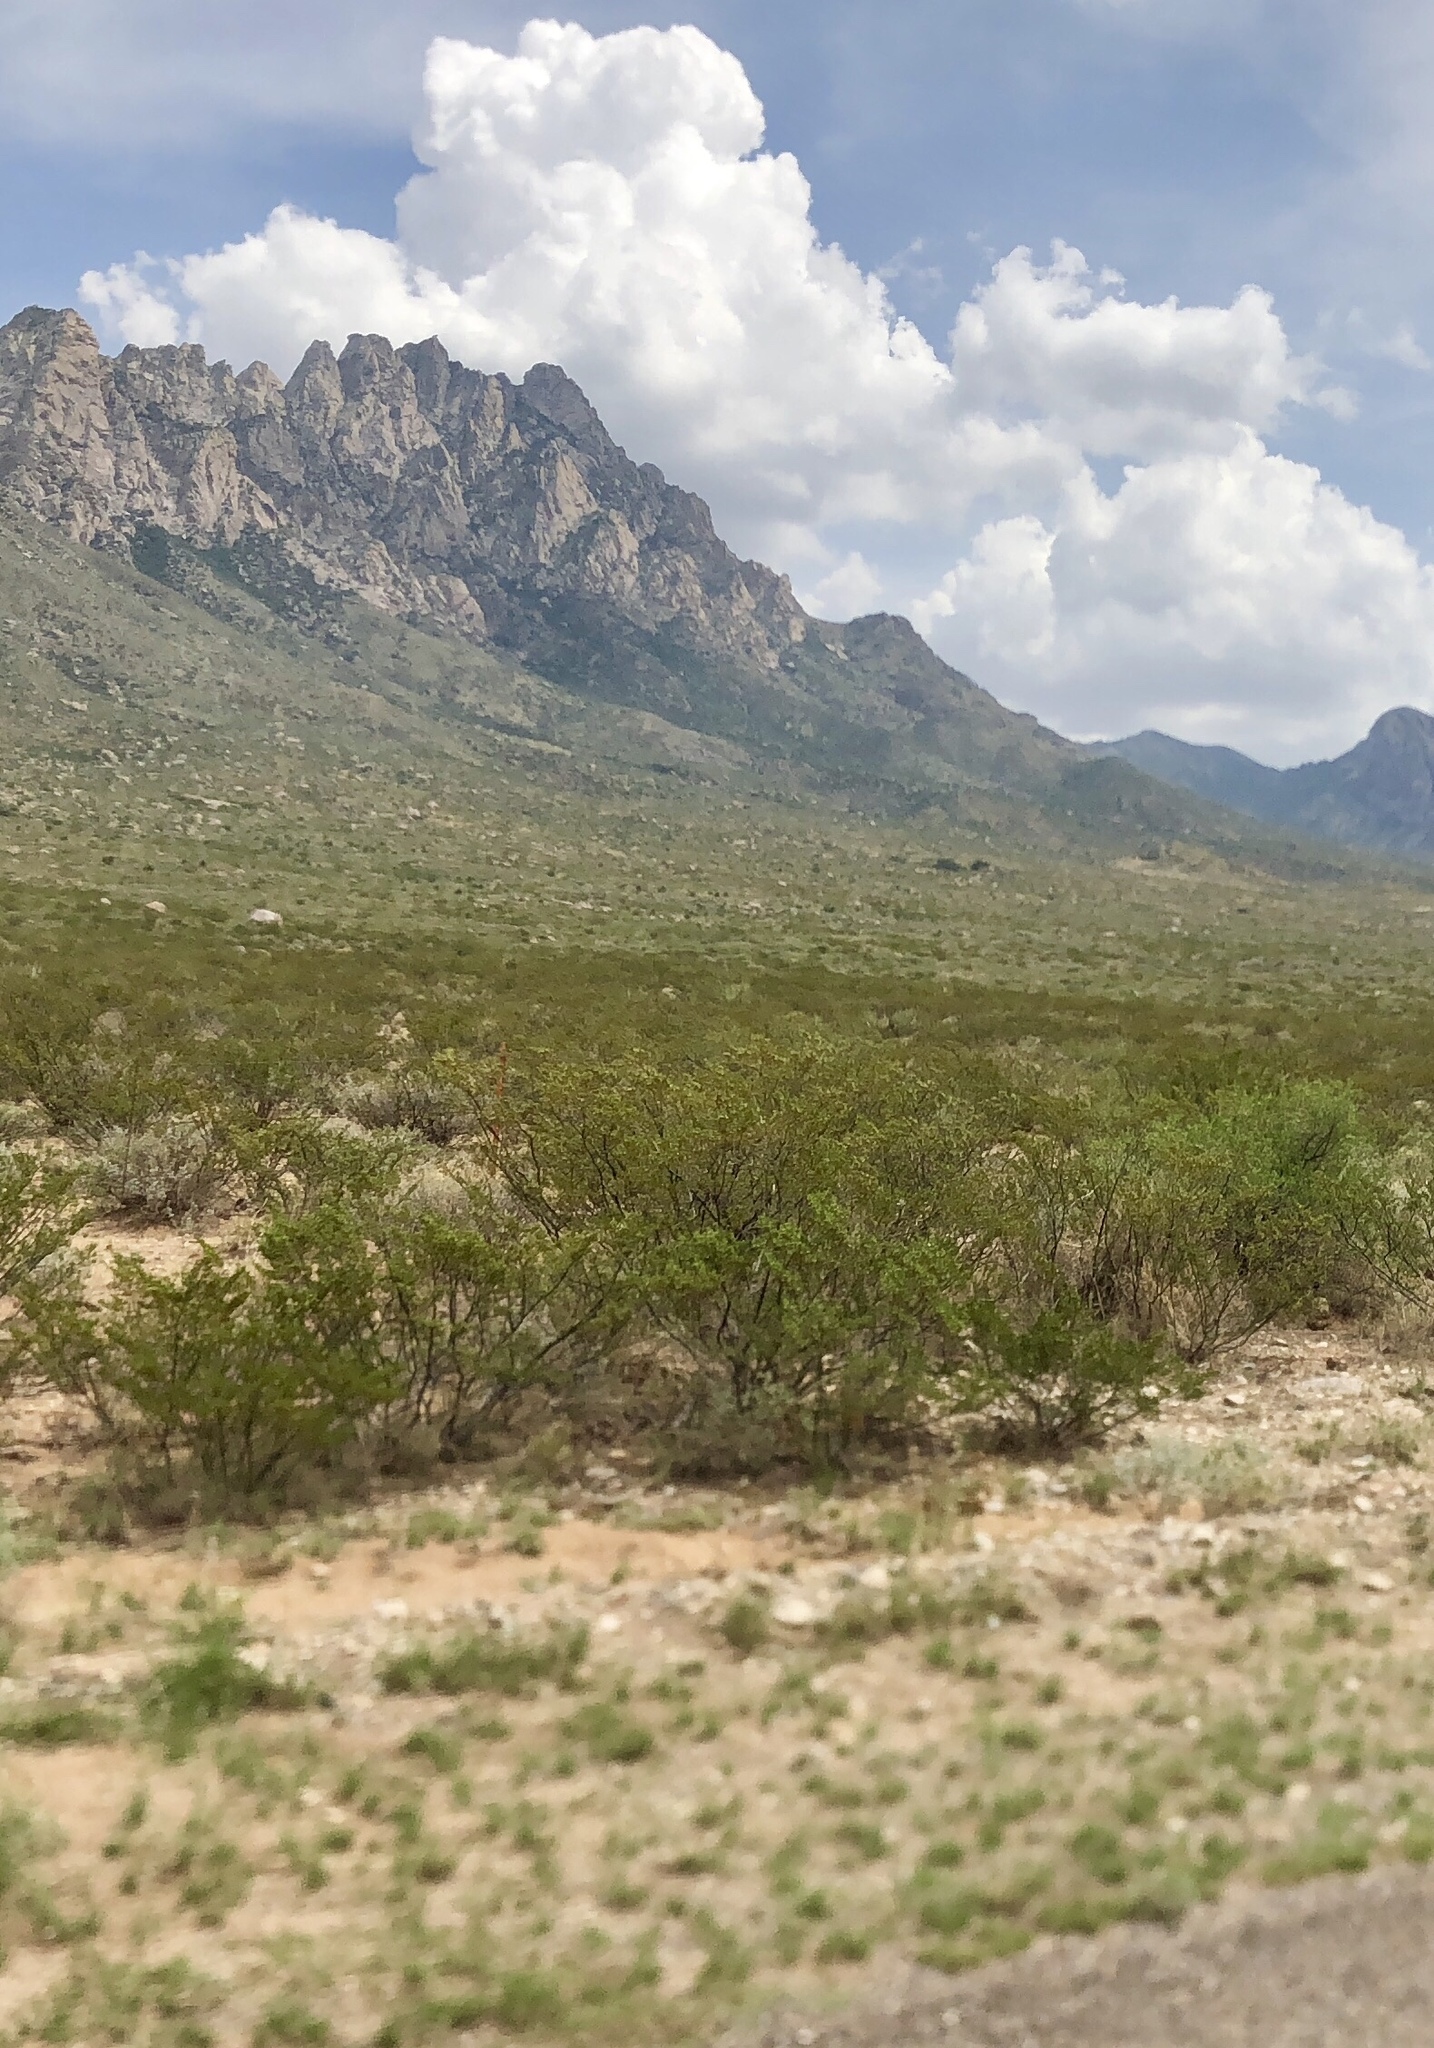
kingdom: Plantae
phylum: Tracheophyta
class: Magnoliopsida
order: Zygophyllales
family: Zygophyllaceae
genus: Larrea
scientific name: Larrea tridentata
